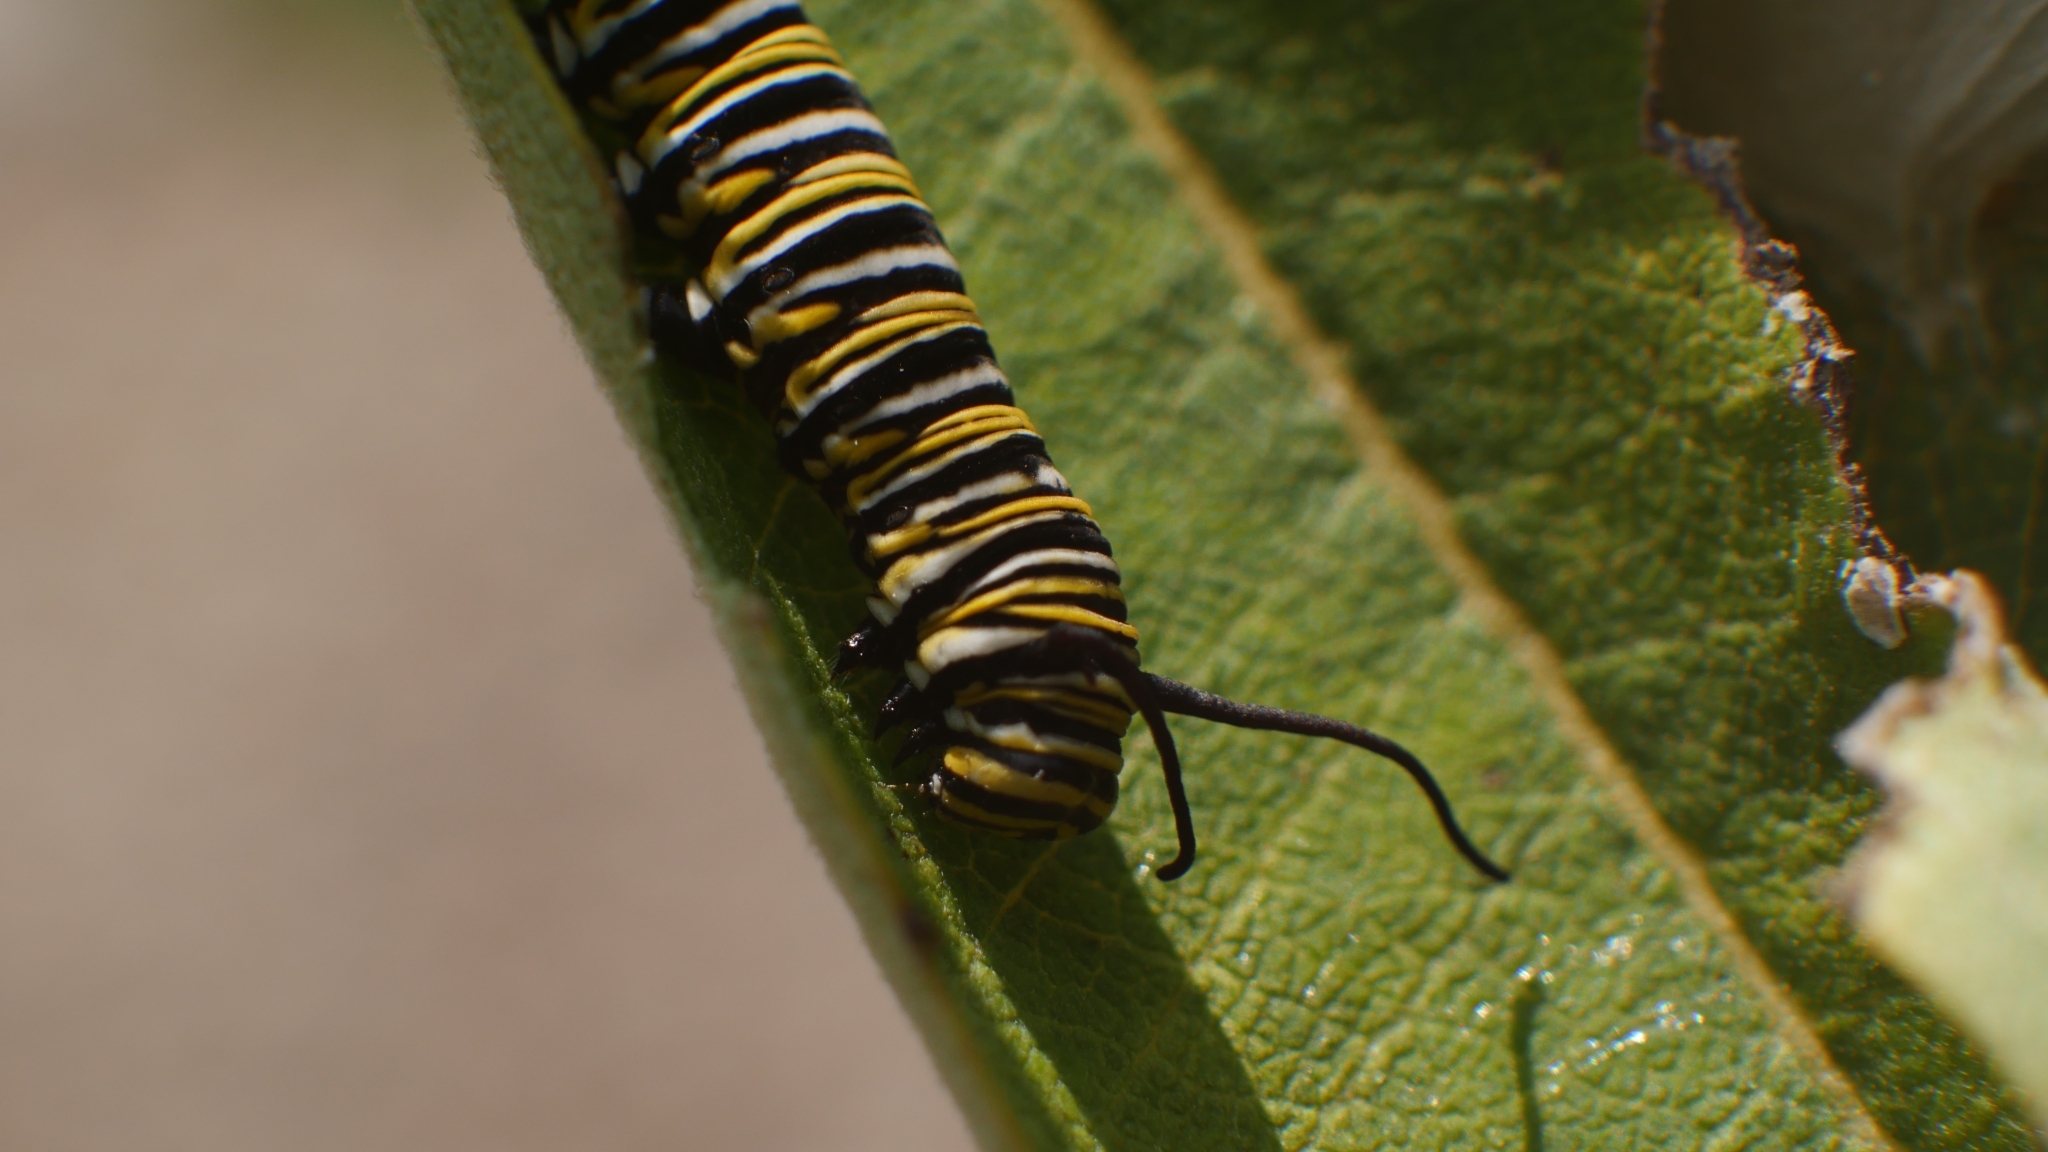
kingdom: Animalia
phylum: Arthropoda
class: Insecta
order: Lepidoptera
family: Nymphalidae
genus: Danaus
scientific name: Danaus plexippus
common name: Monarch
